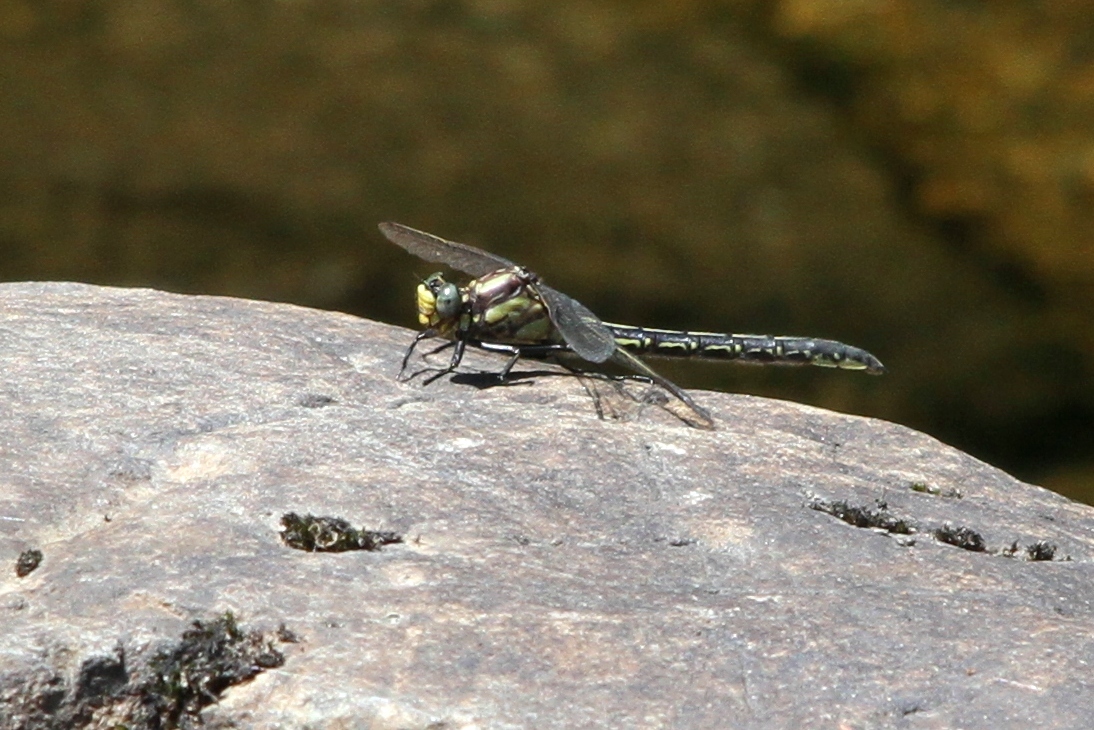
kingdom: Animalia
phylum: Arthropoda
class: Insecta
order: Odonata
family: Gomphidae
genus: Phanogomphus
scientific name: Phanogomphus descriptus
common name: Harpoon clubtail
